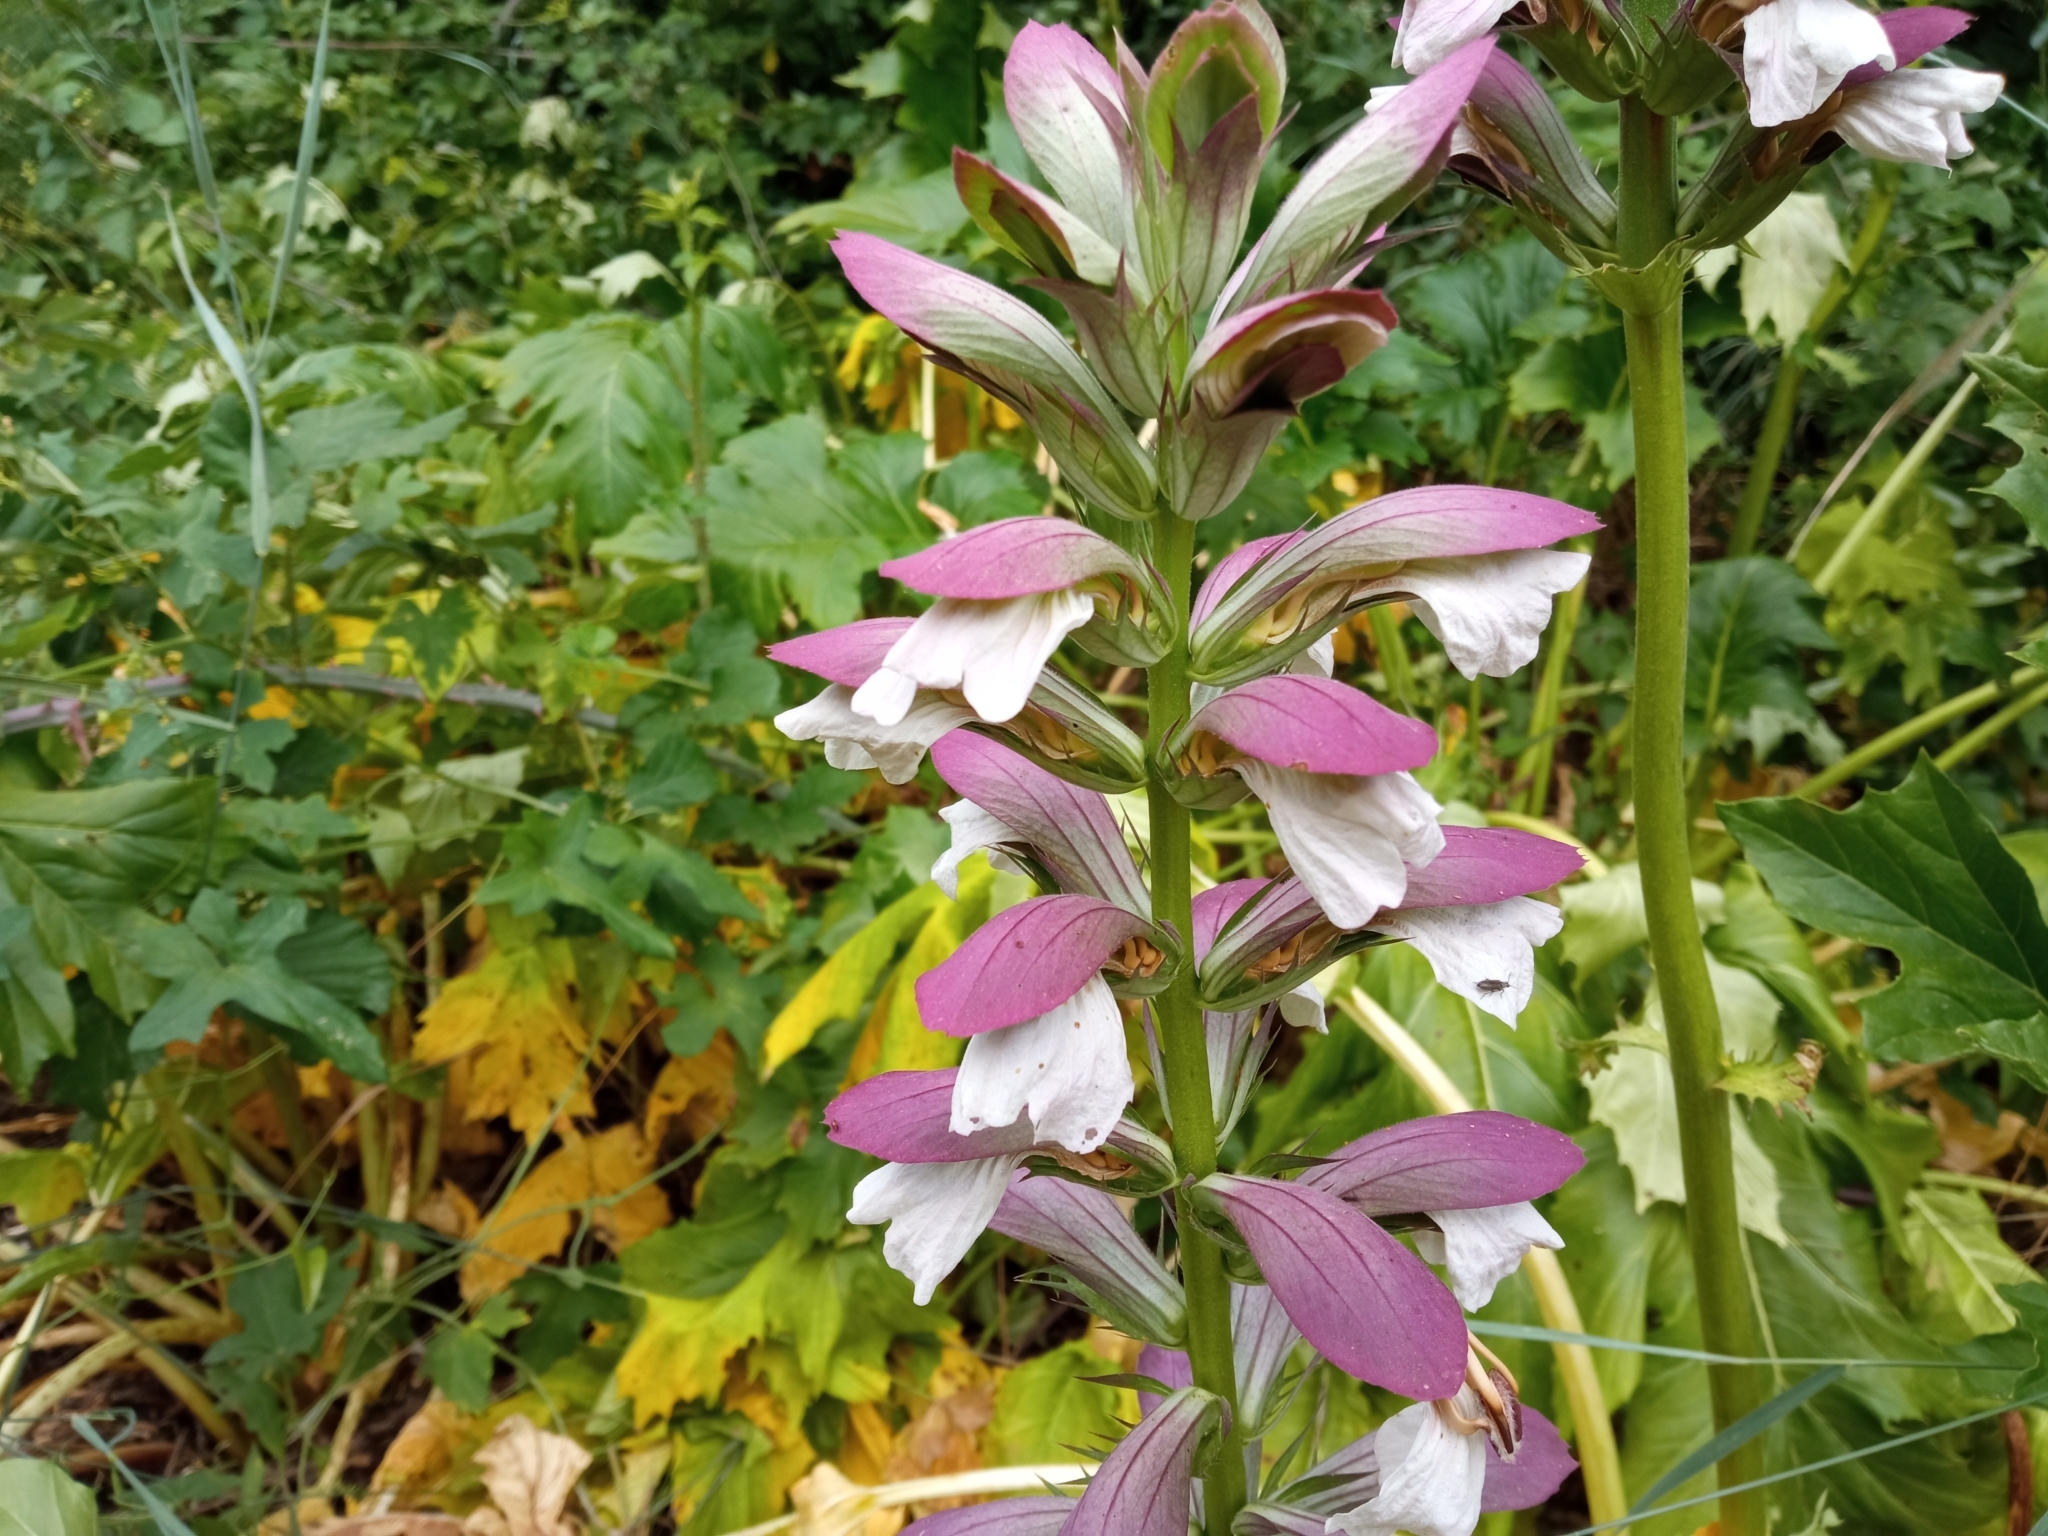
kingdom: Plantae
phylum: Tracheophyta
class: Magnoliopsida
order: Lamiales
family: Acanthaceae
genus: Acanthus
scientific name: Acanthus mollis
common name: Bear's-breech
